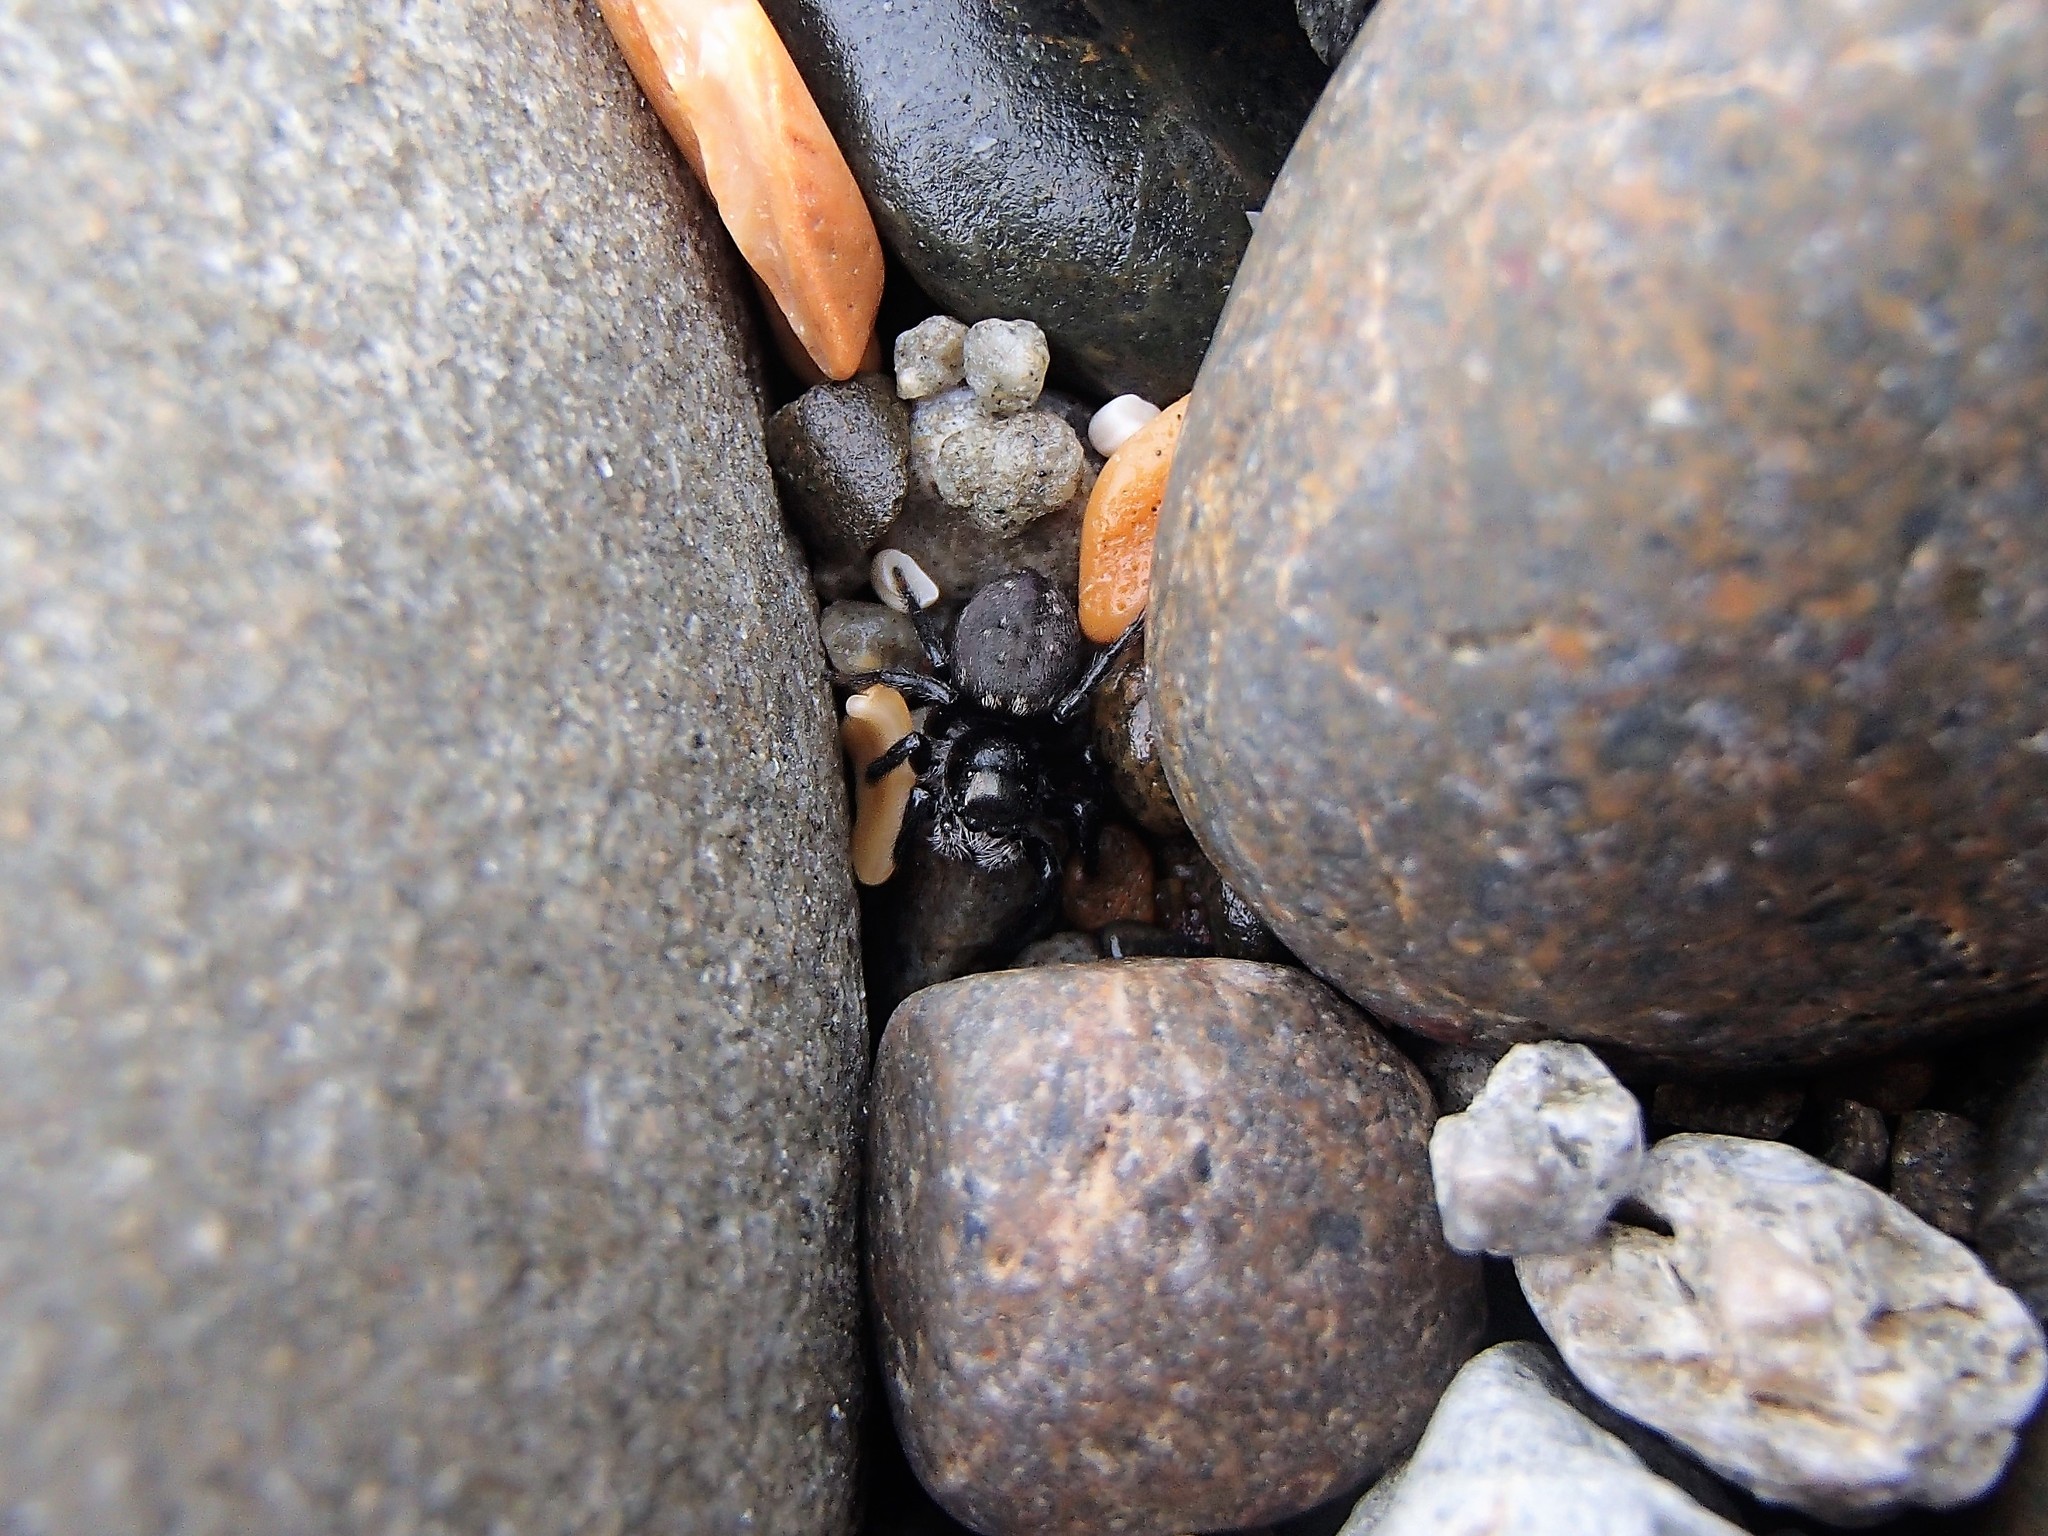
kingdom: Animalia
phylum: Arthropoda
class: Arachnida
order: Araneae
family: Salticidae
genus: Marpissa
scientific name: Marpissa marina
